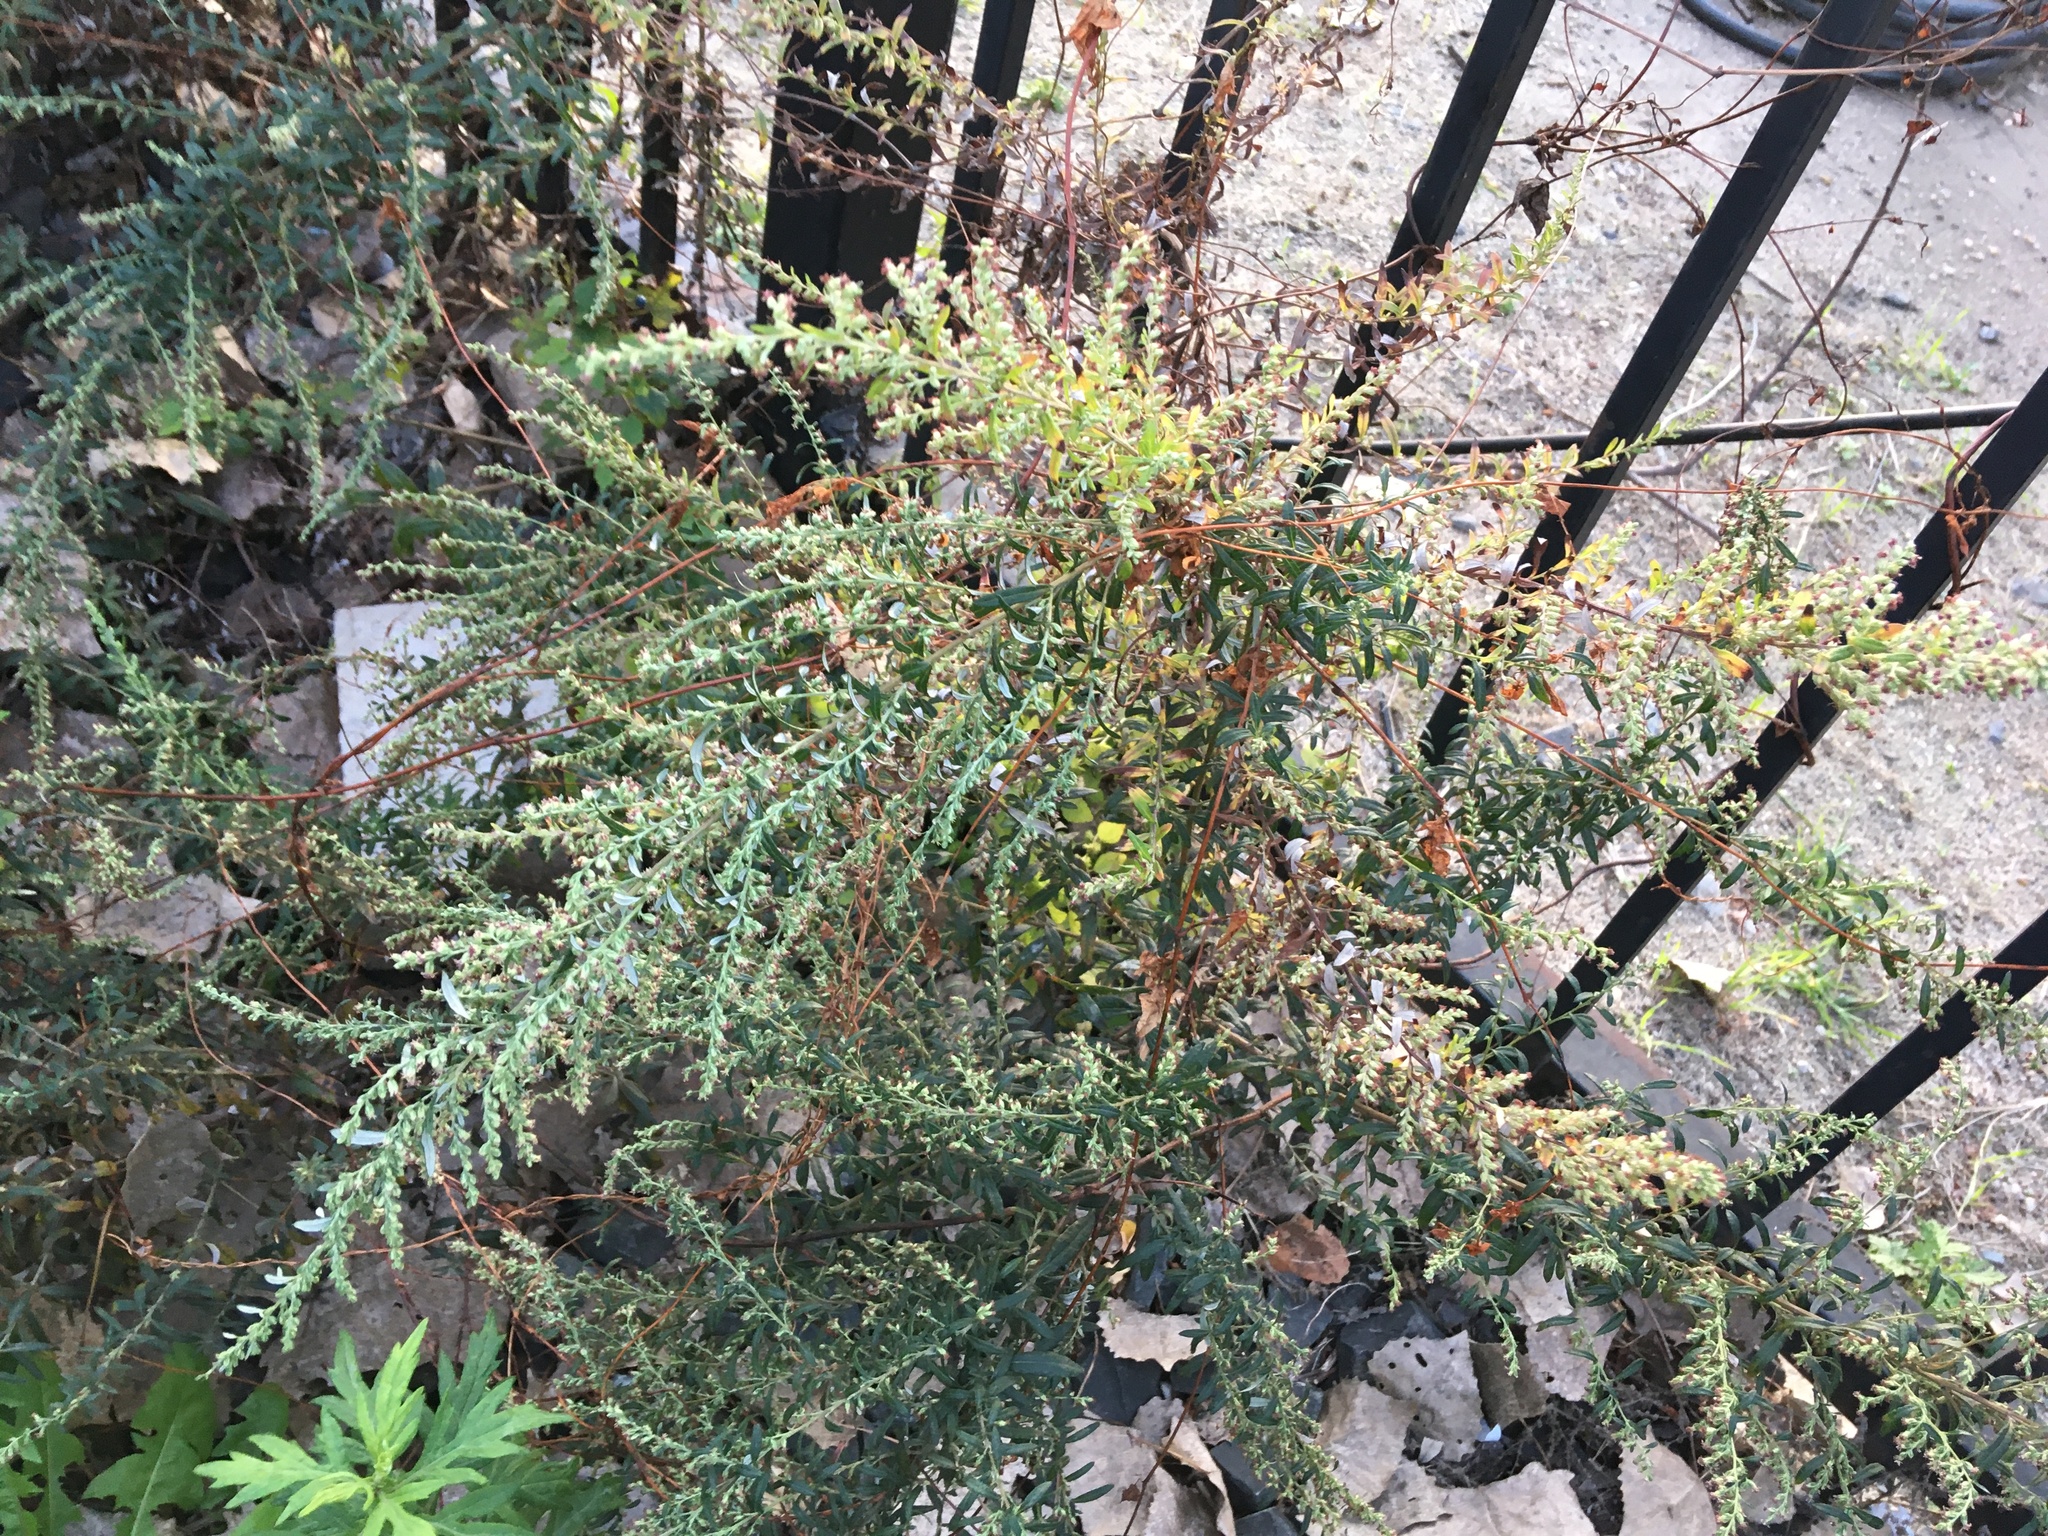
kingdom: Plantae
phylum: Tracheophyta
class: Magnoliopsida
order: Asterales
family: Asteraceae
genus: Artemisia
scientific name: Artemisia vulgaris
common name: Mugwort
